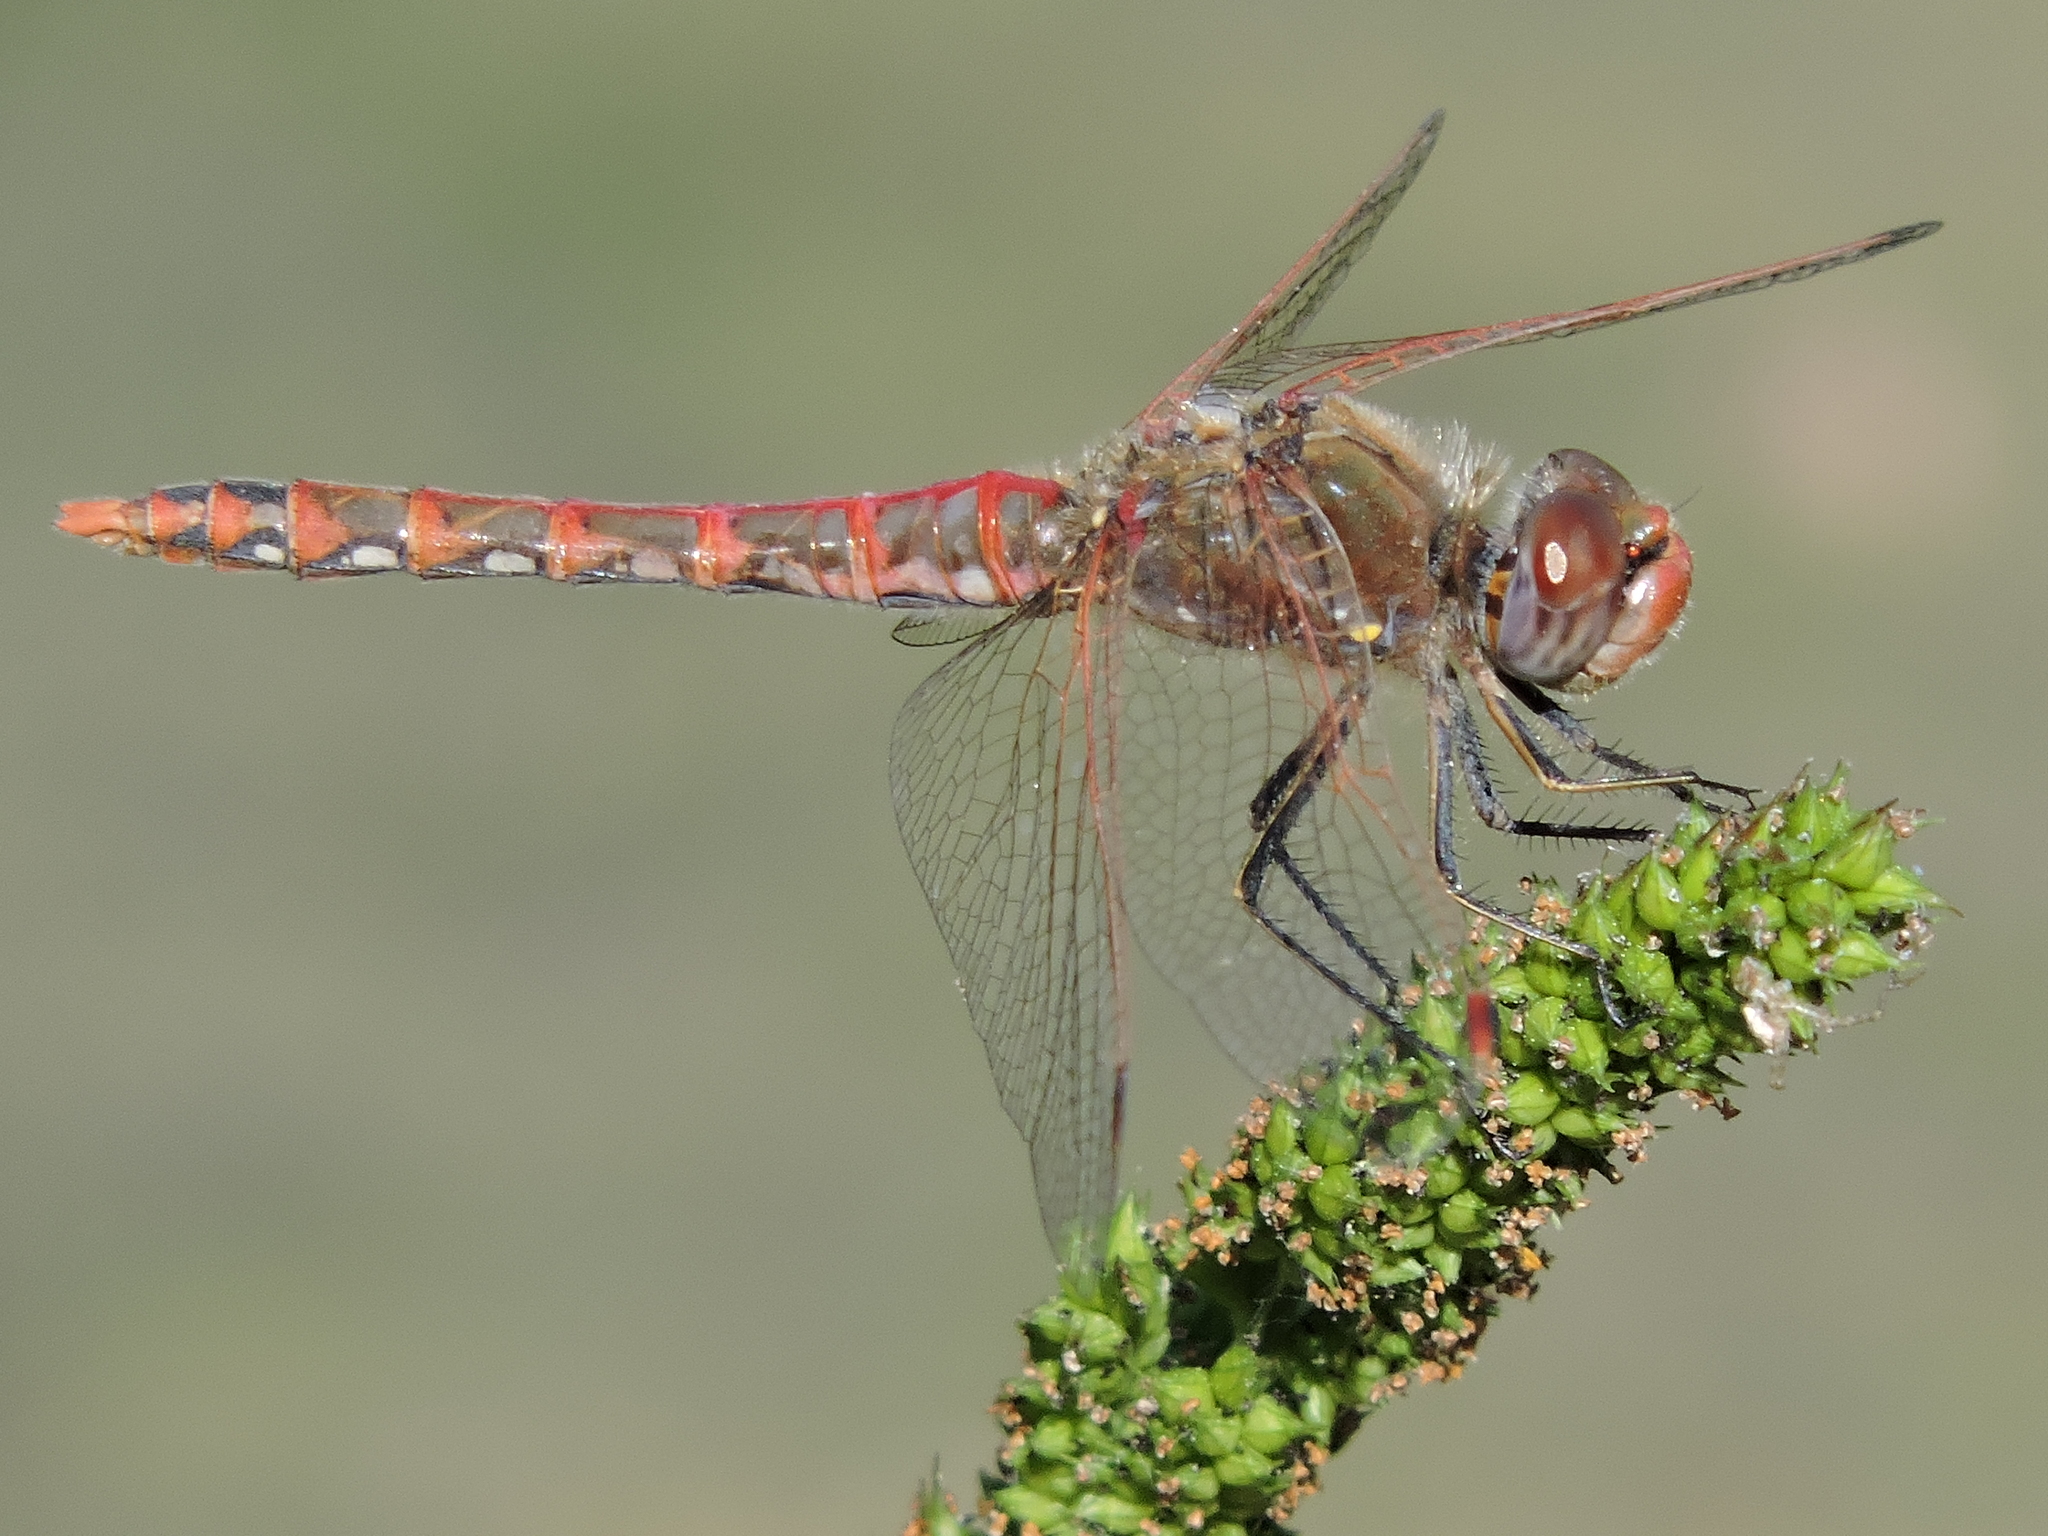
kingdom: Animalia
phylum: Arthropoda
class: Insecta
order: Odonata
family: Libellulidae
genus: Sympetrum
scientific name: Sympetrum corruptum
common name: Variegated meadowhawk
